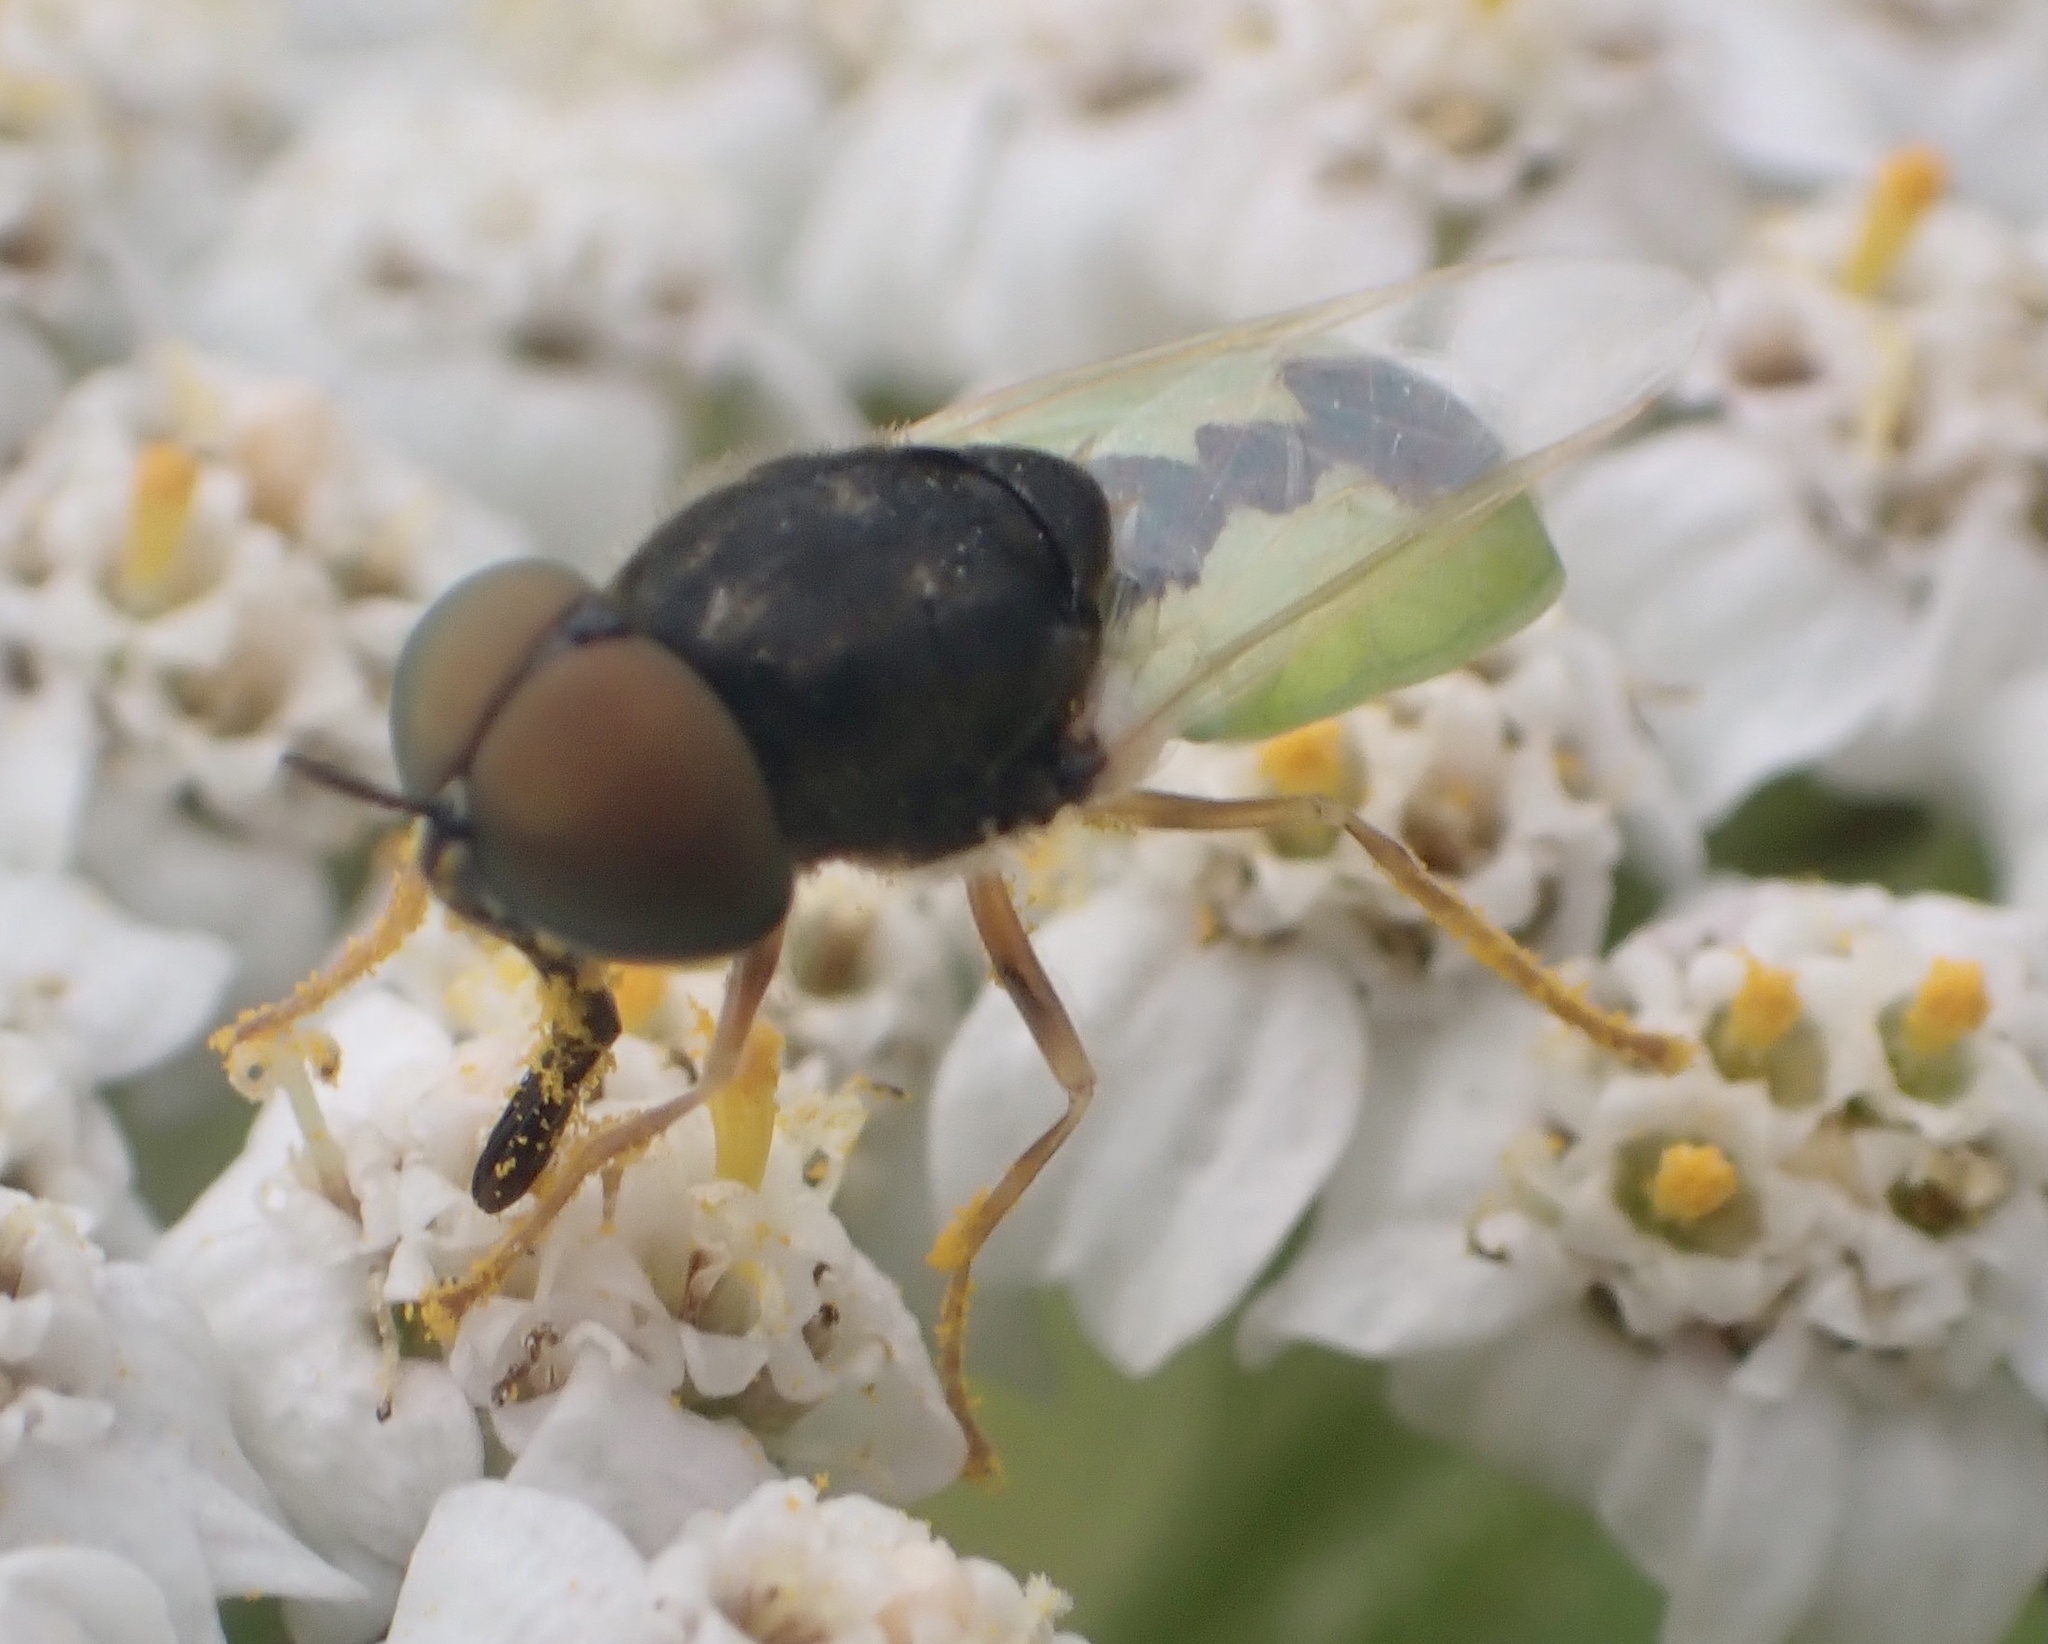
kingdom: Animalia
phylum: Arthropoda
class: Insecta
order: Diptera
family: Stratiomyidae
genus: Odontomyia
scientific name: Odontomyia hydroleon
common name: Barred green colonel
